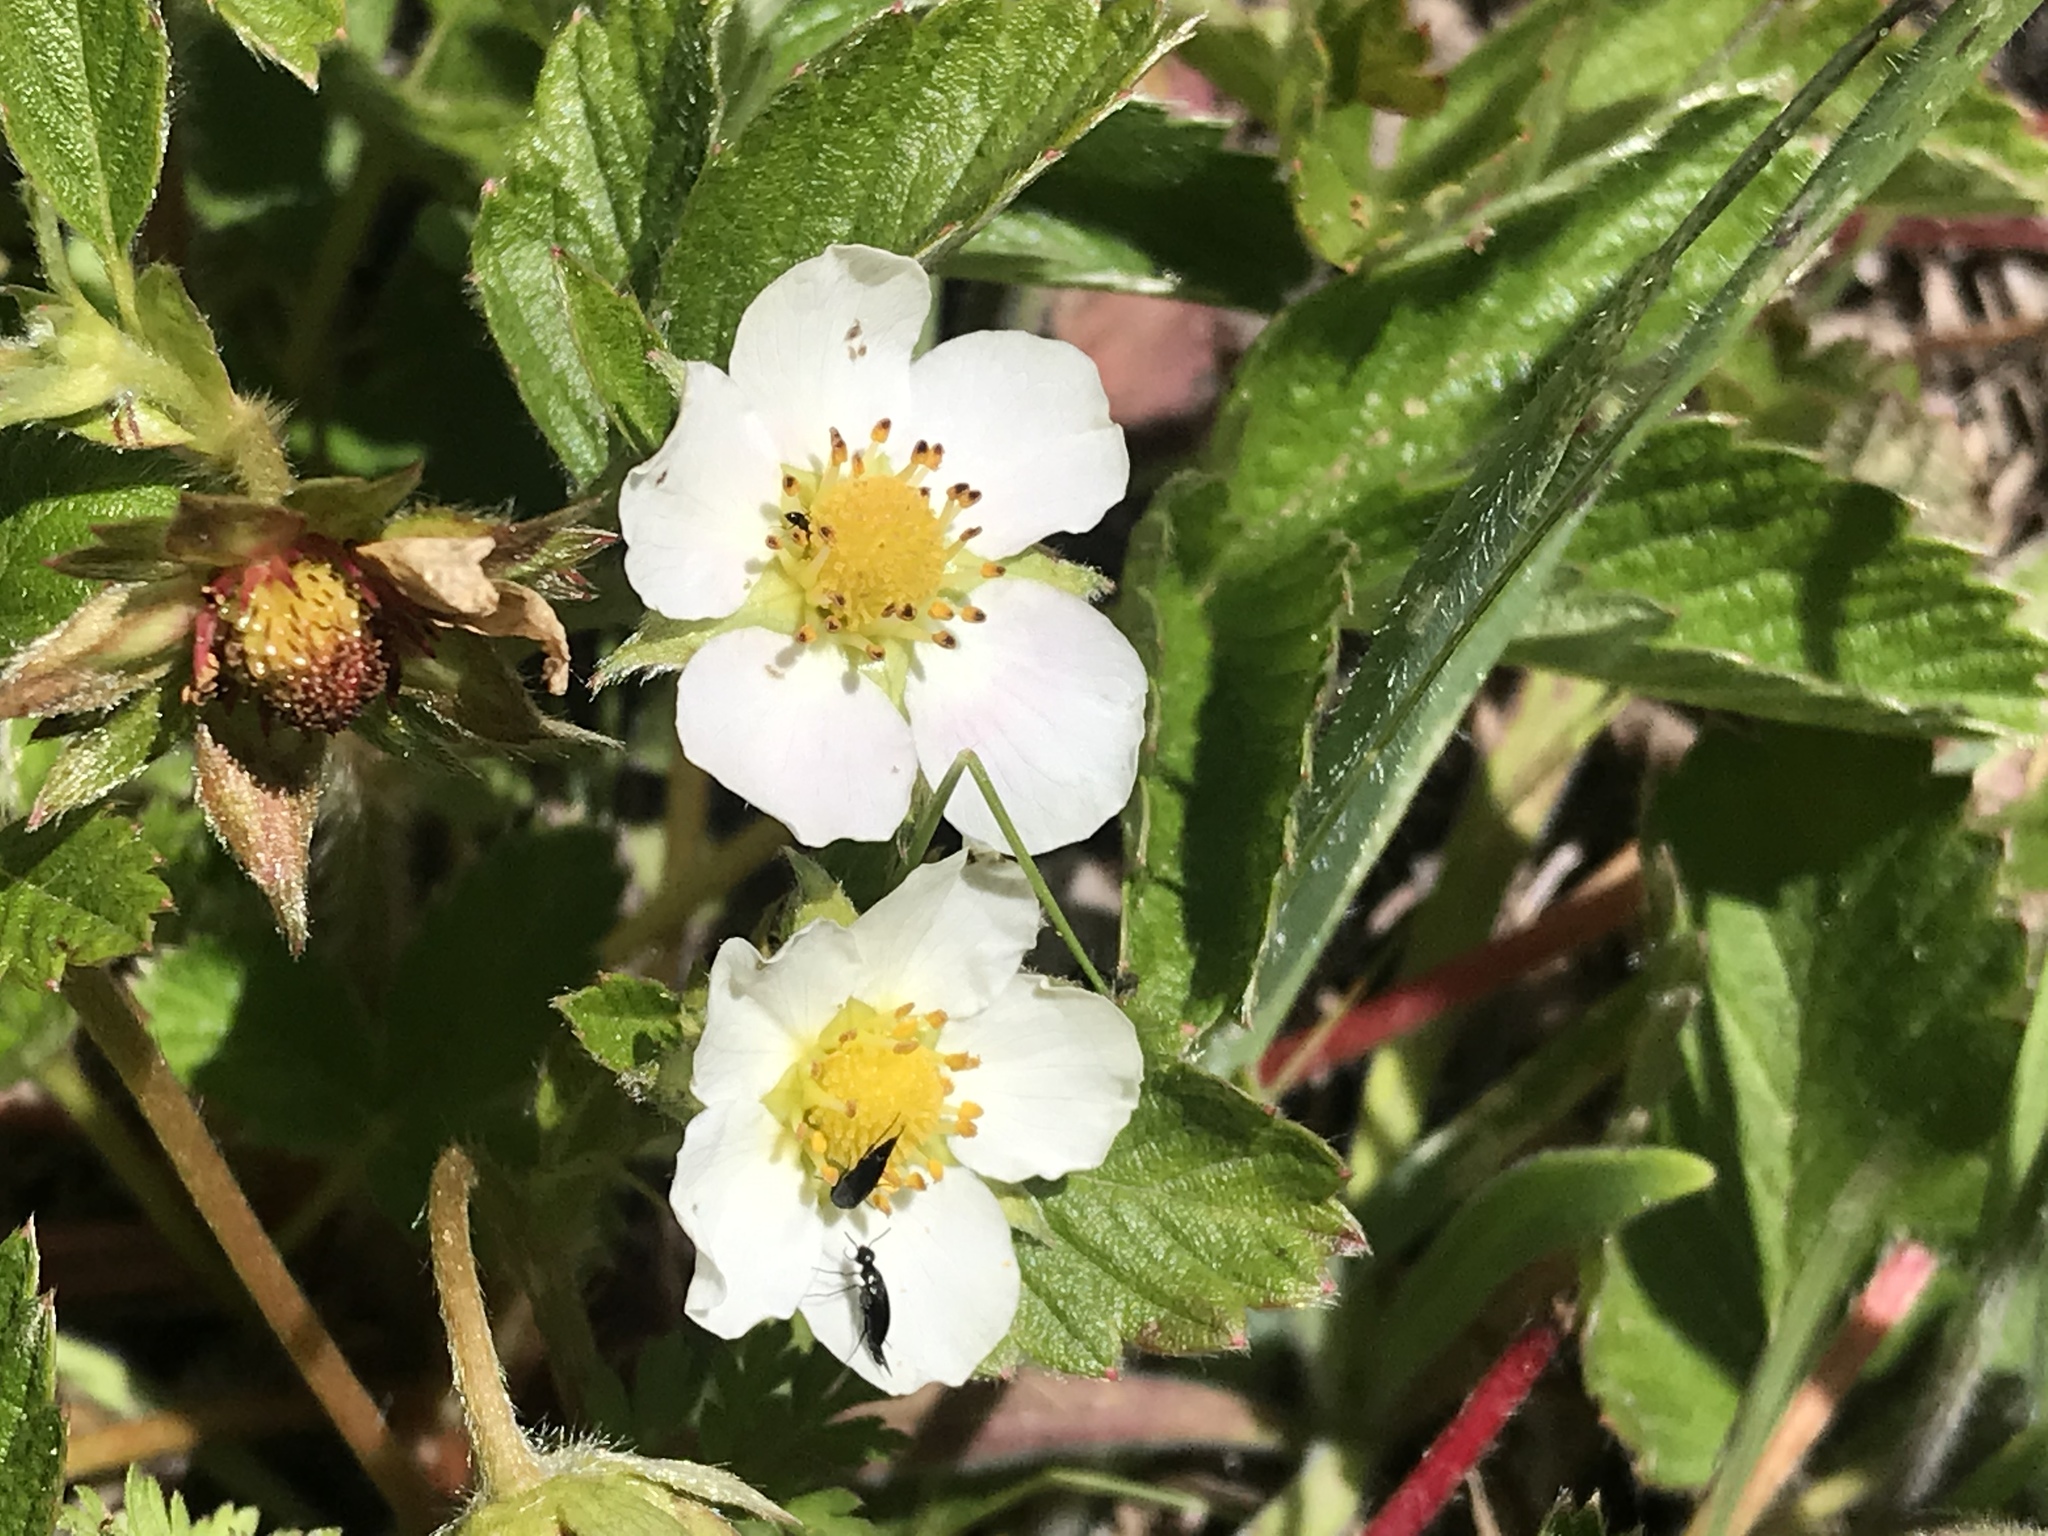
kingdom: Plantae
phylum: Tracheophyta
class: Magnoliopsida
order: Rosales
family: Rosaceae
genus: Fragaria
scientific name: Fragaria vesca
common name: Wild strawberry
